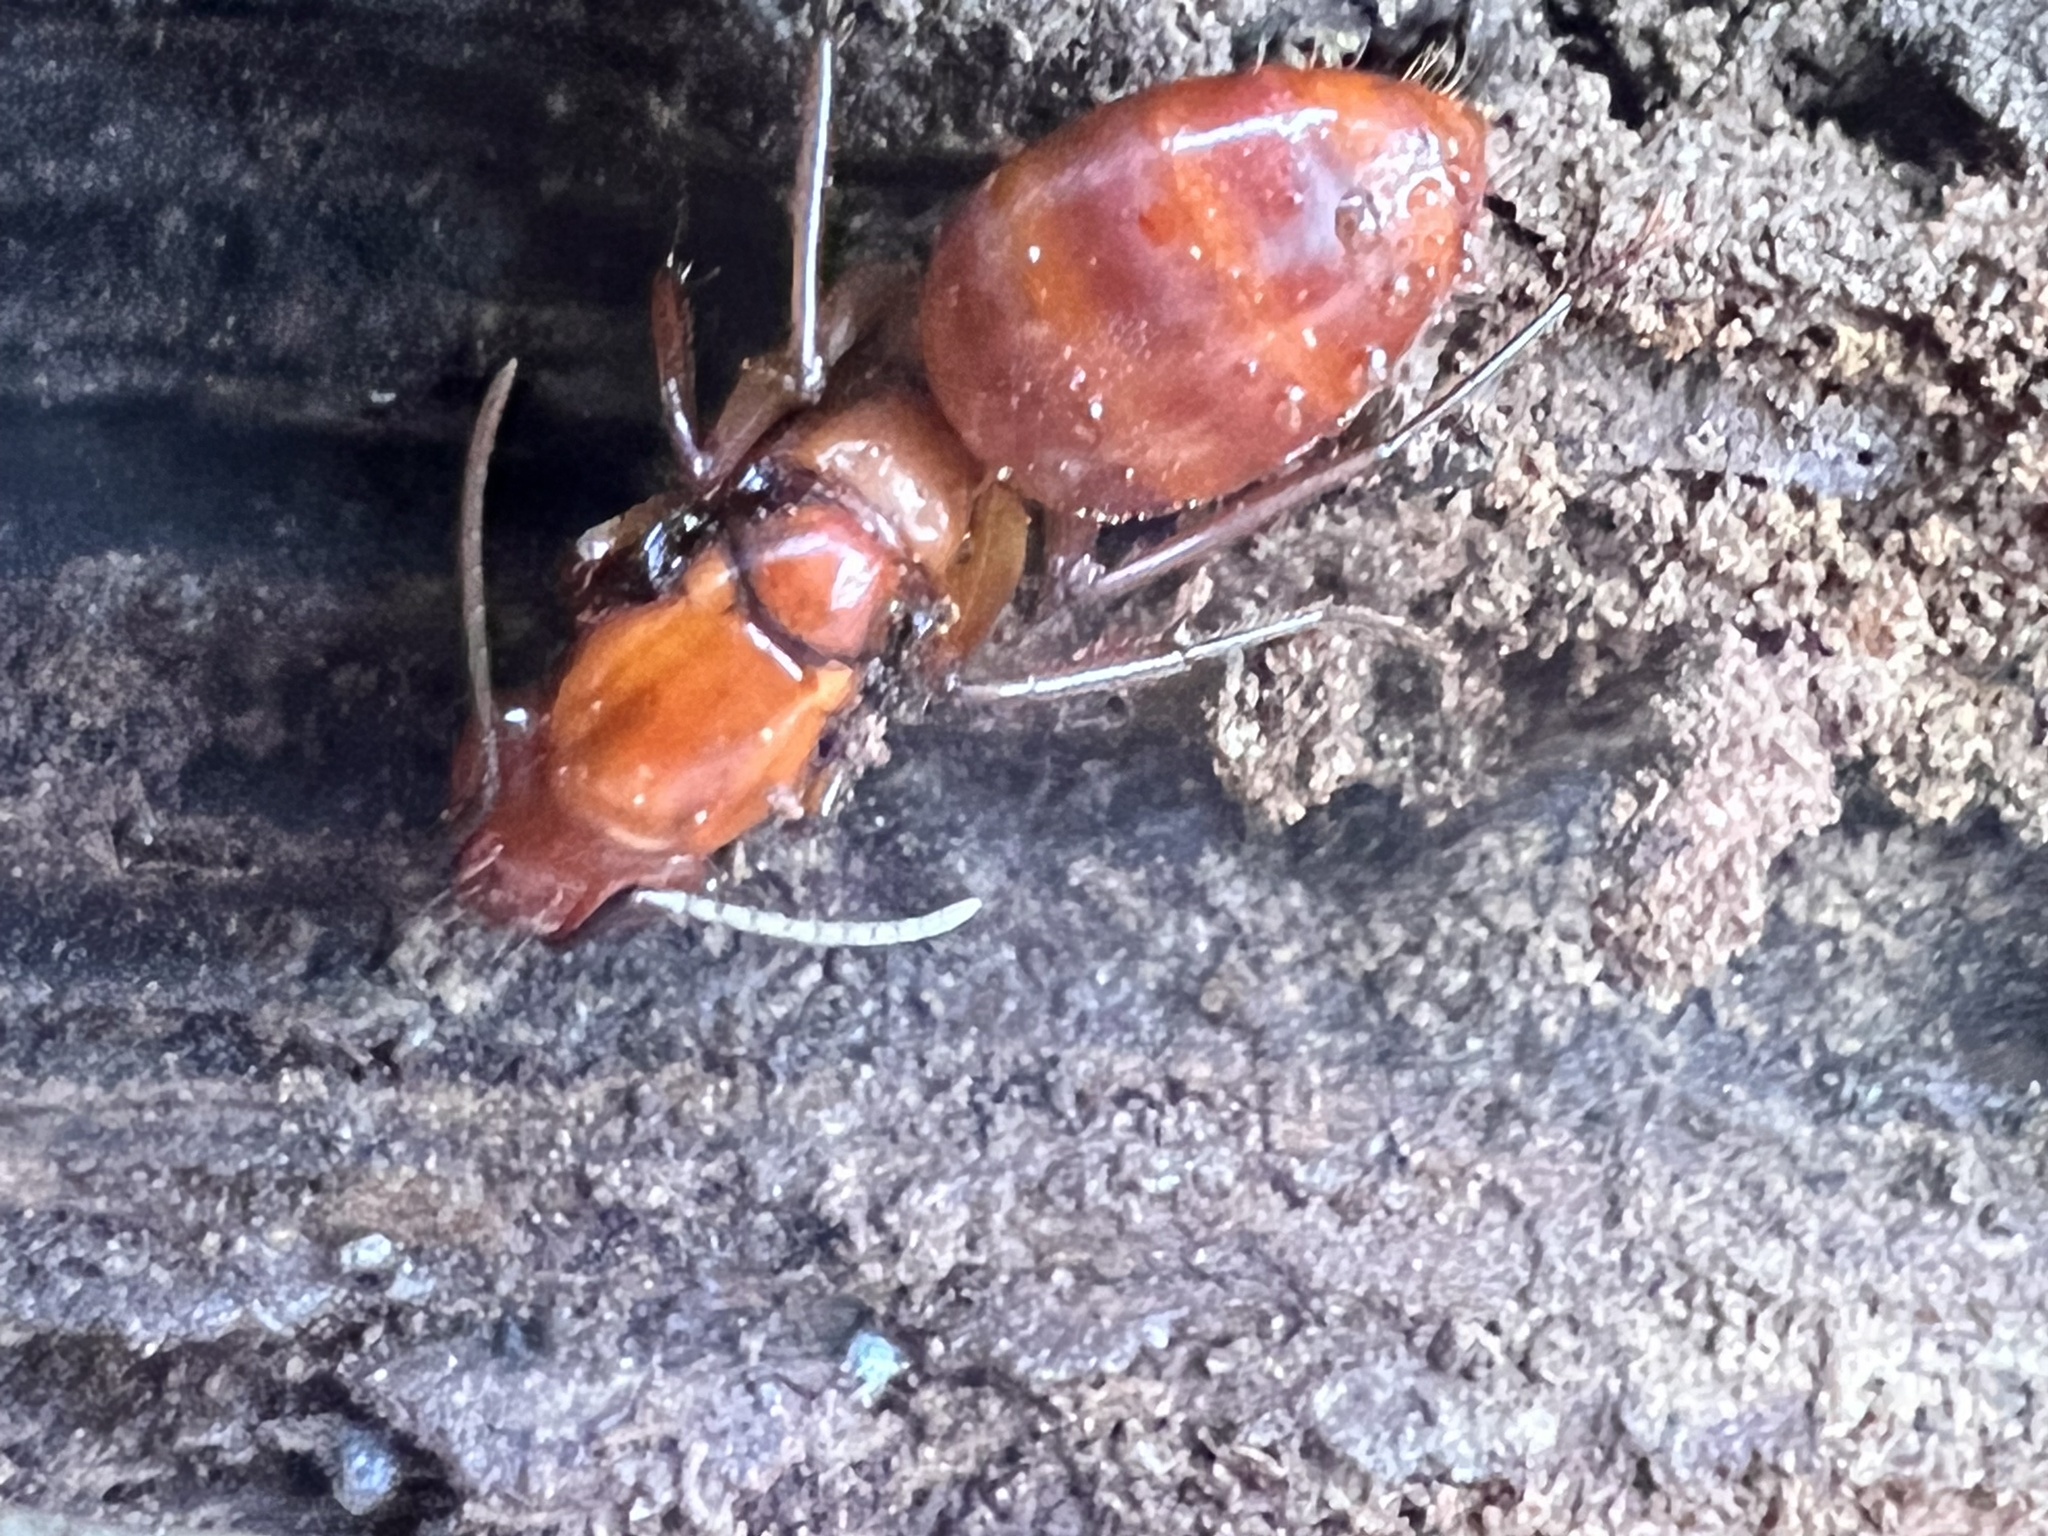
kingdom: Animalia
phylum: Arthropoda
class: Insecta
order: Hymenoptera
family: Formicidae
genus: Camponotus
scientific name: Camponotus castaneus
